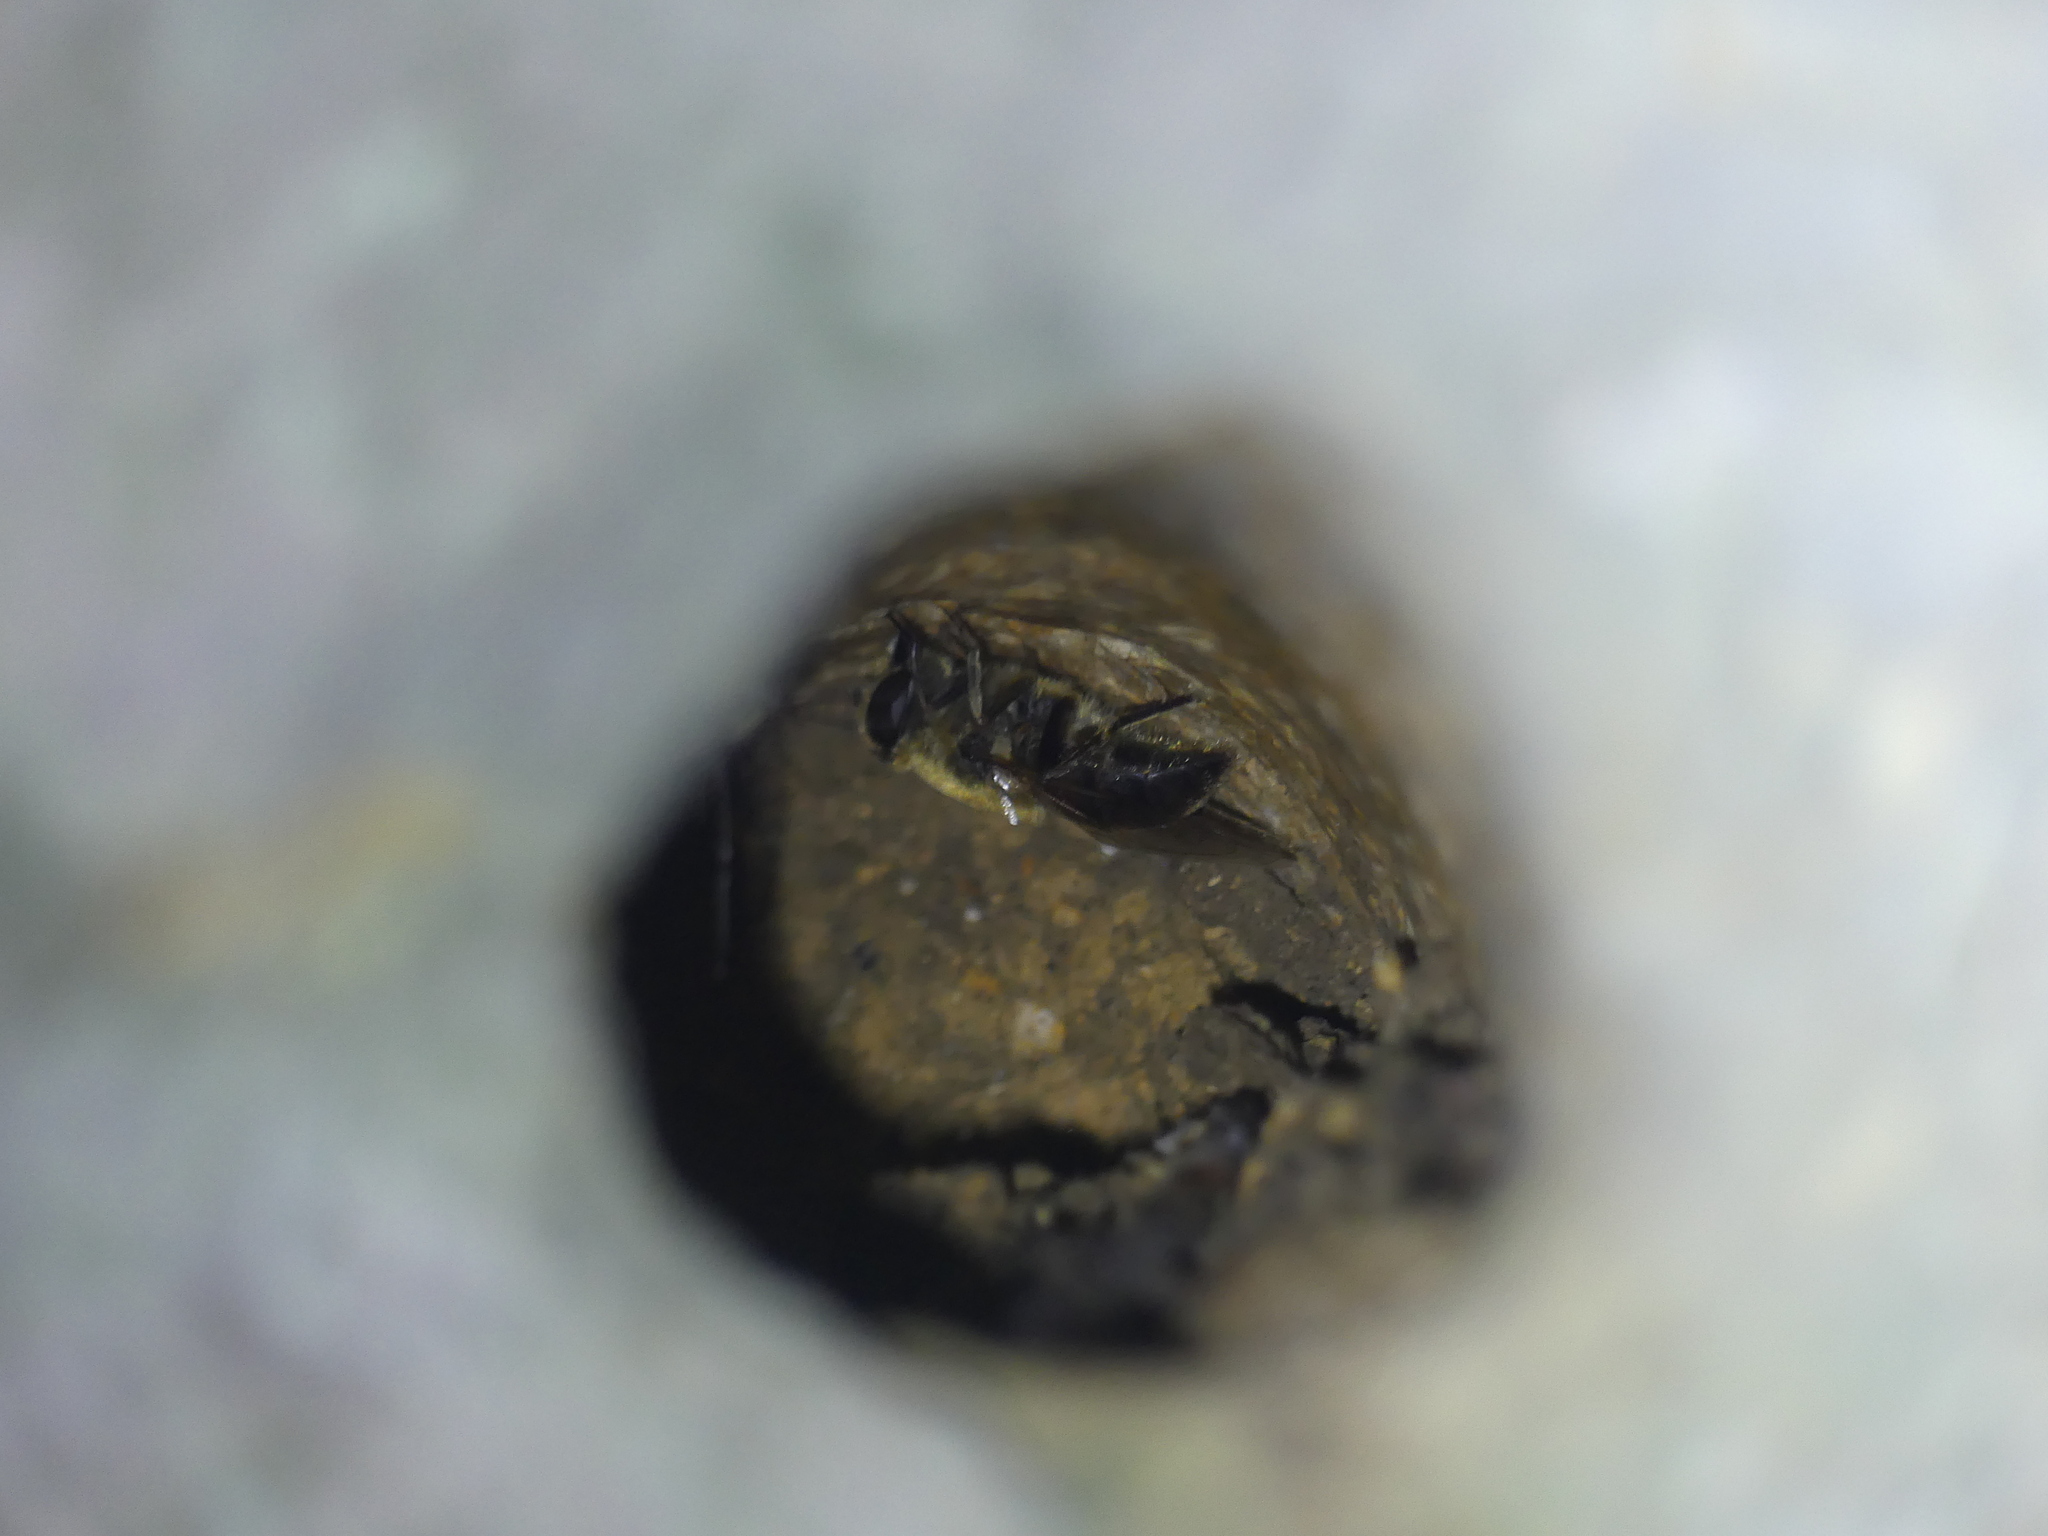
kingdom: Animalia
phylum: Arthropoda
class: Insecta
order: Diptera
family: Syrphidae
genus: Eristalis
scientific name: Eristalis tenax
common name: Drone fly
